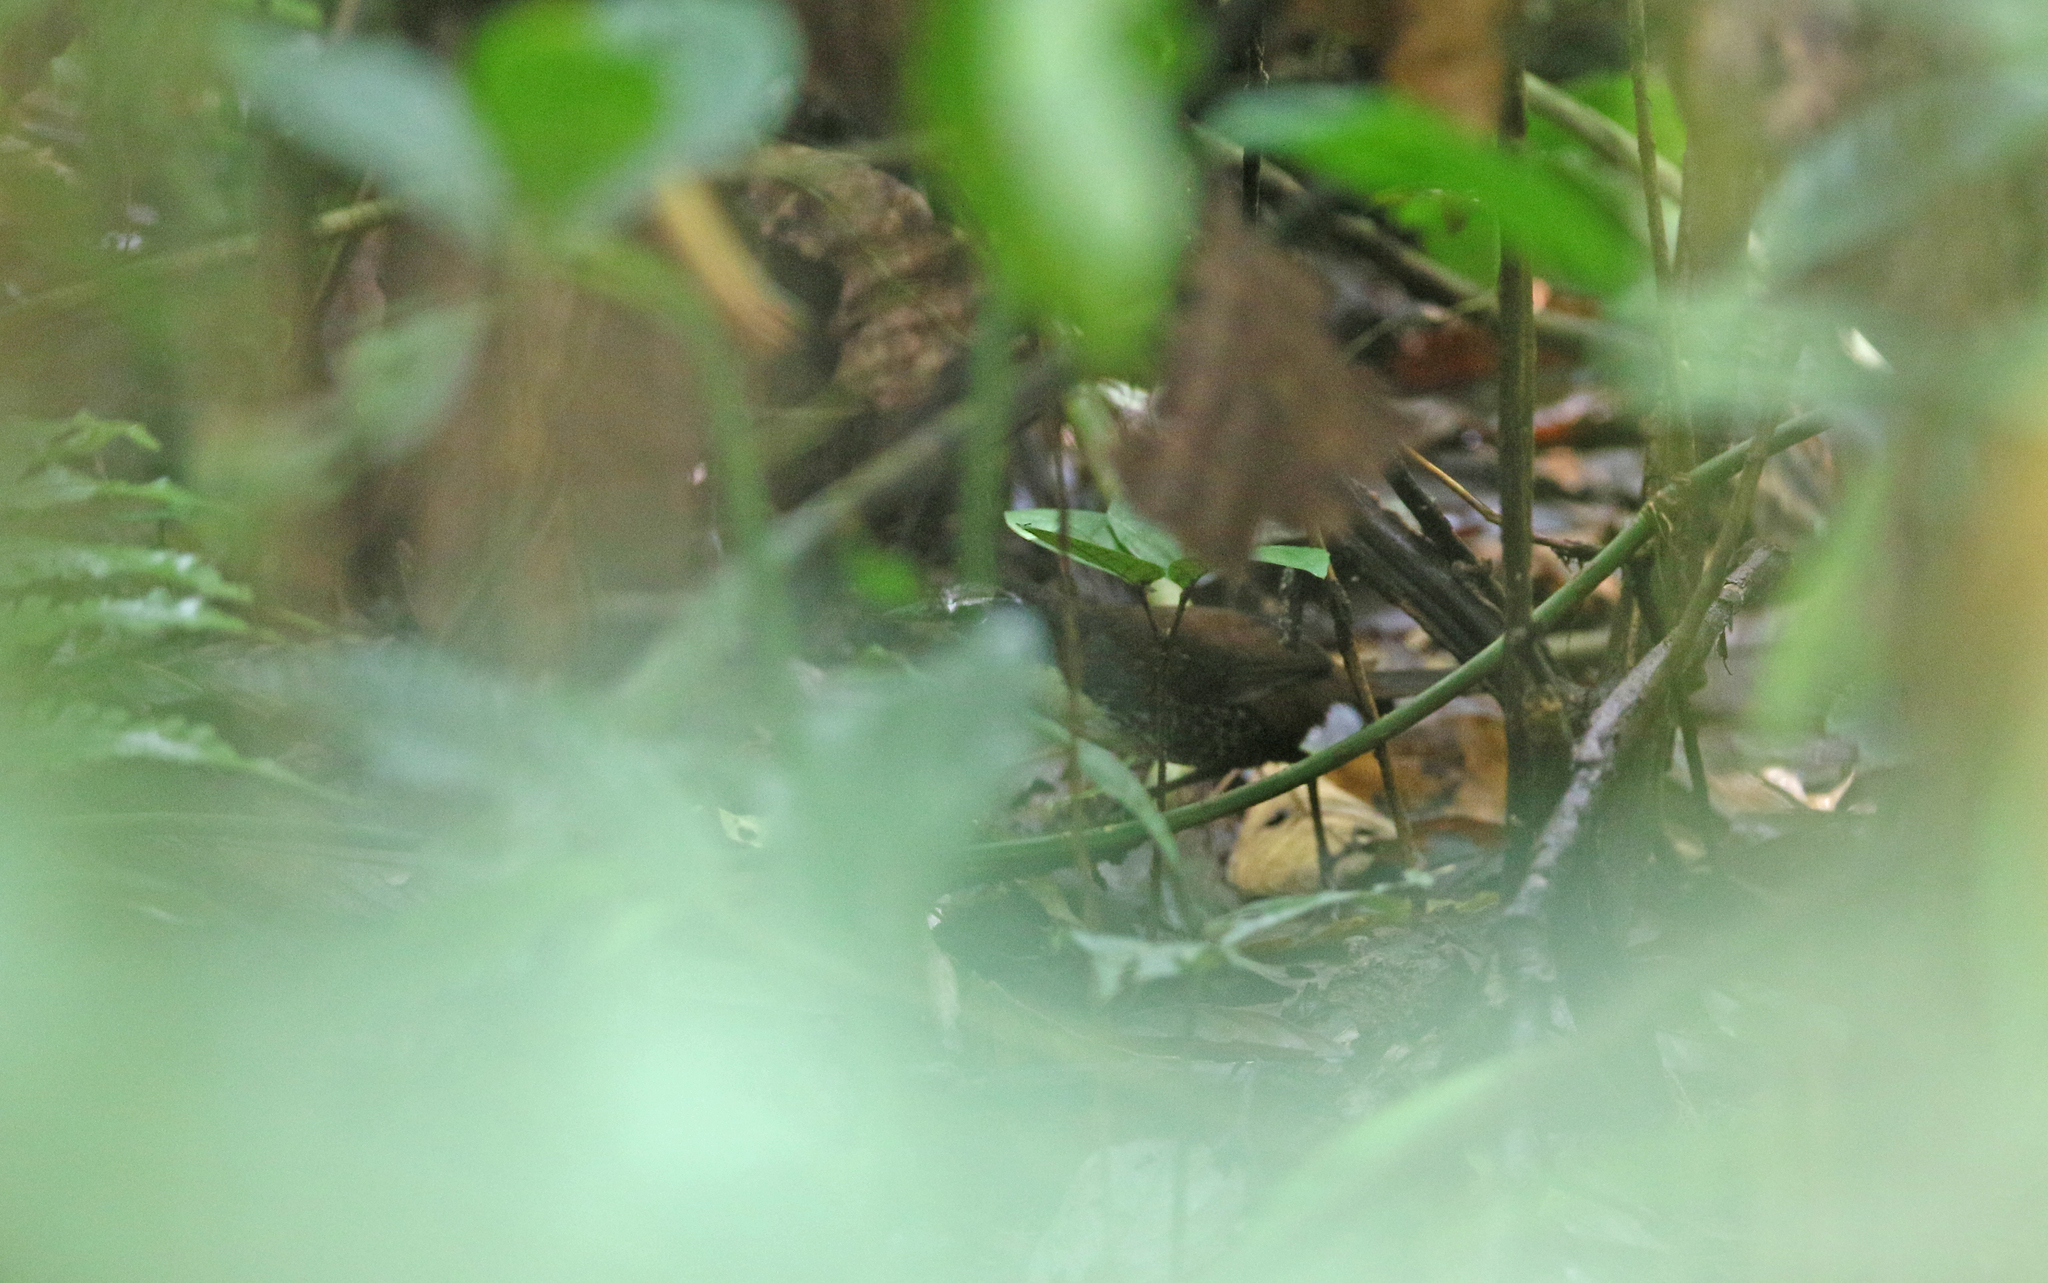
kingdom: Animalia
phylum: Chordata
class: Aves
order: Passeriformes
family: Rhinocryptidae
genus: Liosceles
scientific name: Liosceles thoracicus
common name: Rusty-belted tapaculo
